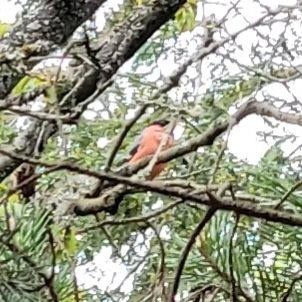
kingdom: Animalia
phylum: Chordata
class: Aves
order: Passeriformes
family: Fringillidae
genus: Pyrrhula
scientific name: Pyrrhula pyrrhula
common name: Eurasian bullfinch
